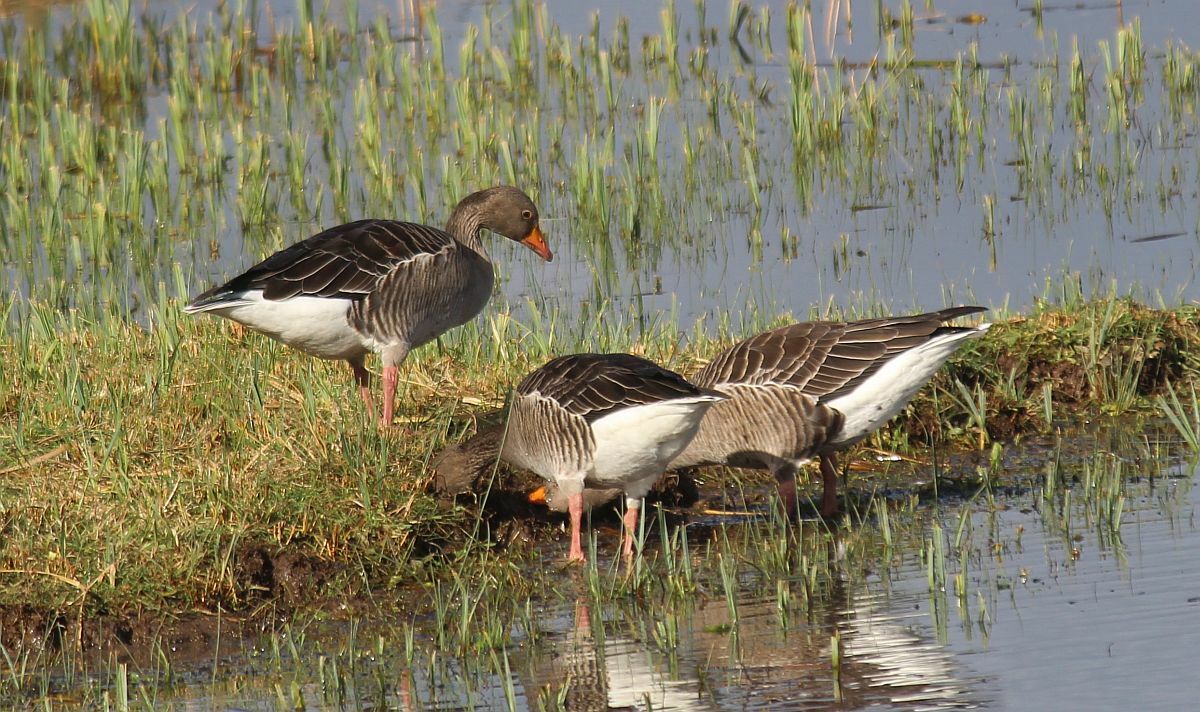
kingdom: Animalia
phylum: Chordata
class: Aves
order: Anseriformes
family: Anatidae
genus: Anser
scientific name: Anser anser
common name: Greylag goose
